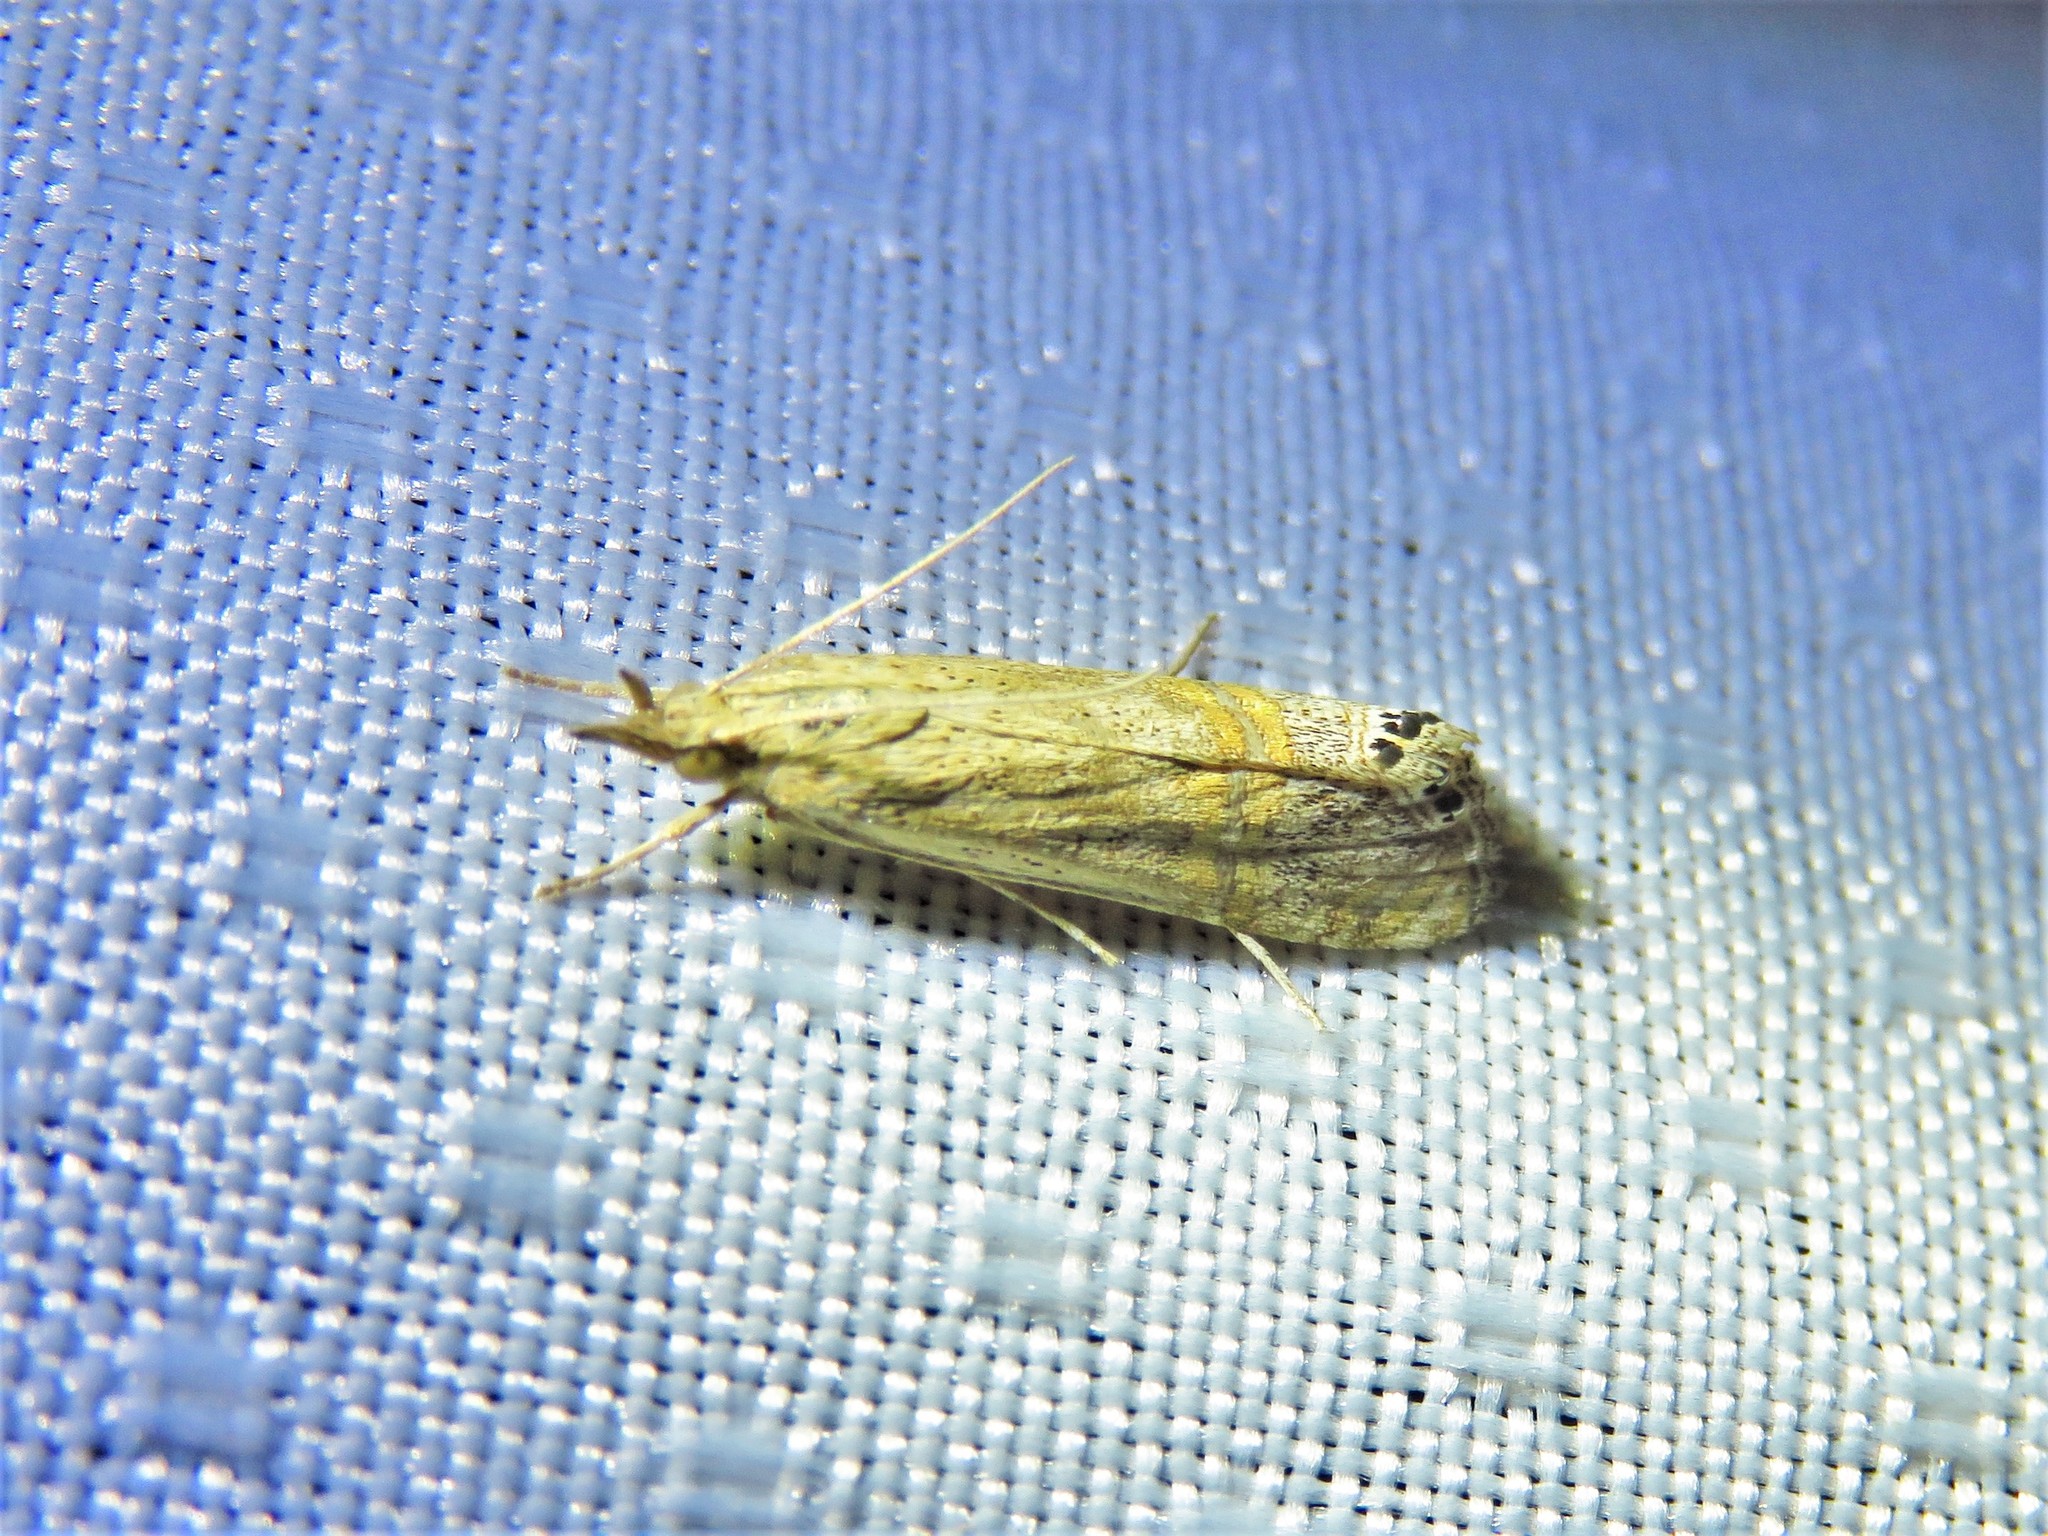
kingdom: Animalia
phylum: Arthropoda
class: Insecta
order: Lepidoptera
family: Crambidae
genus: Euchromius
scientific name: Euchromius ocellea
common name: Necklace veneer moth
